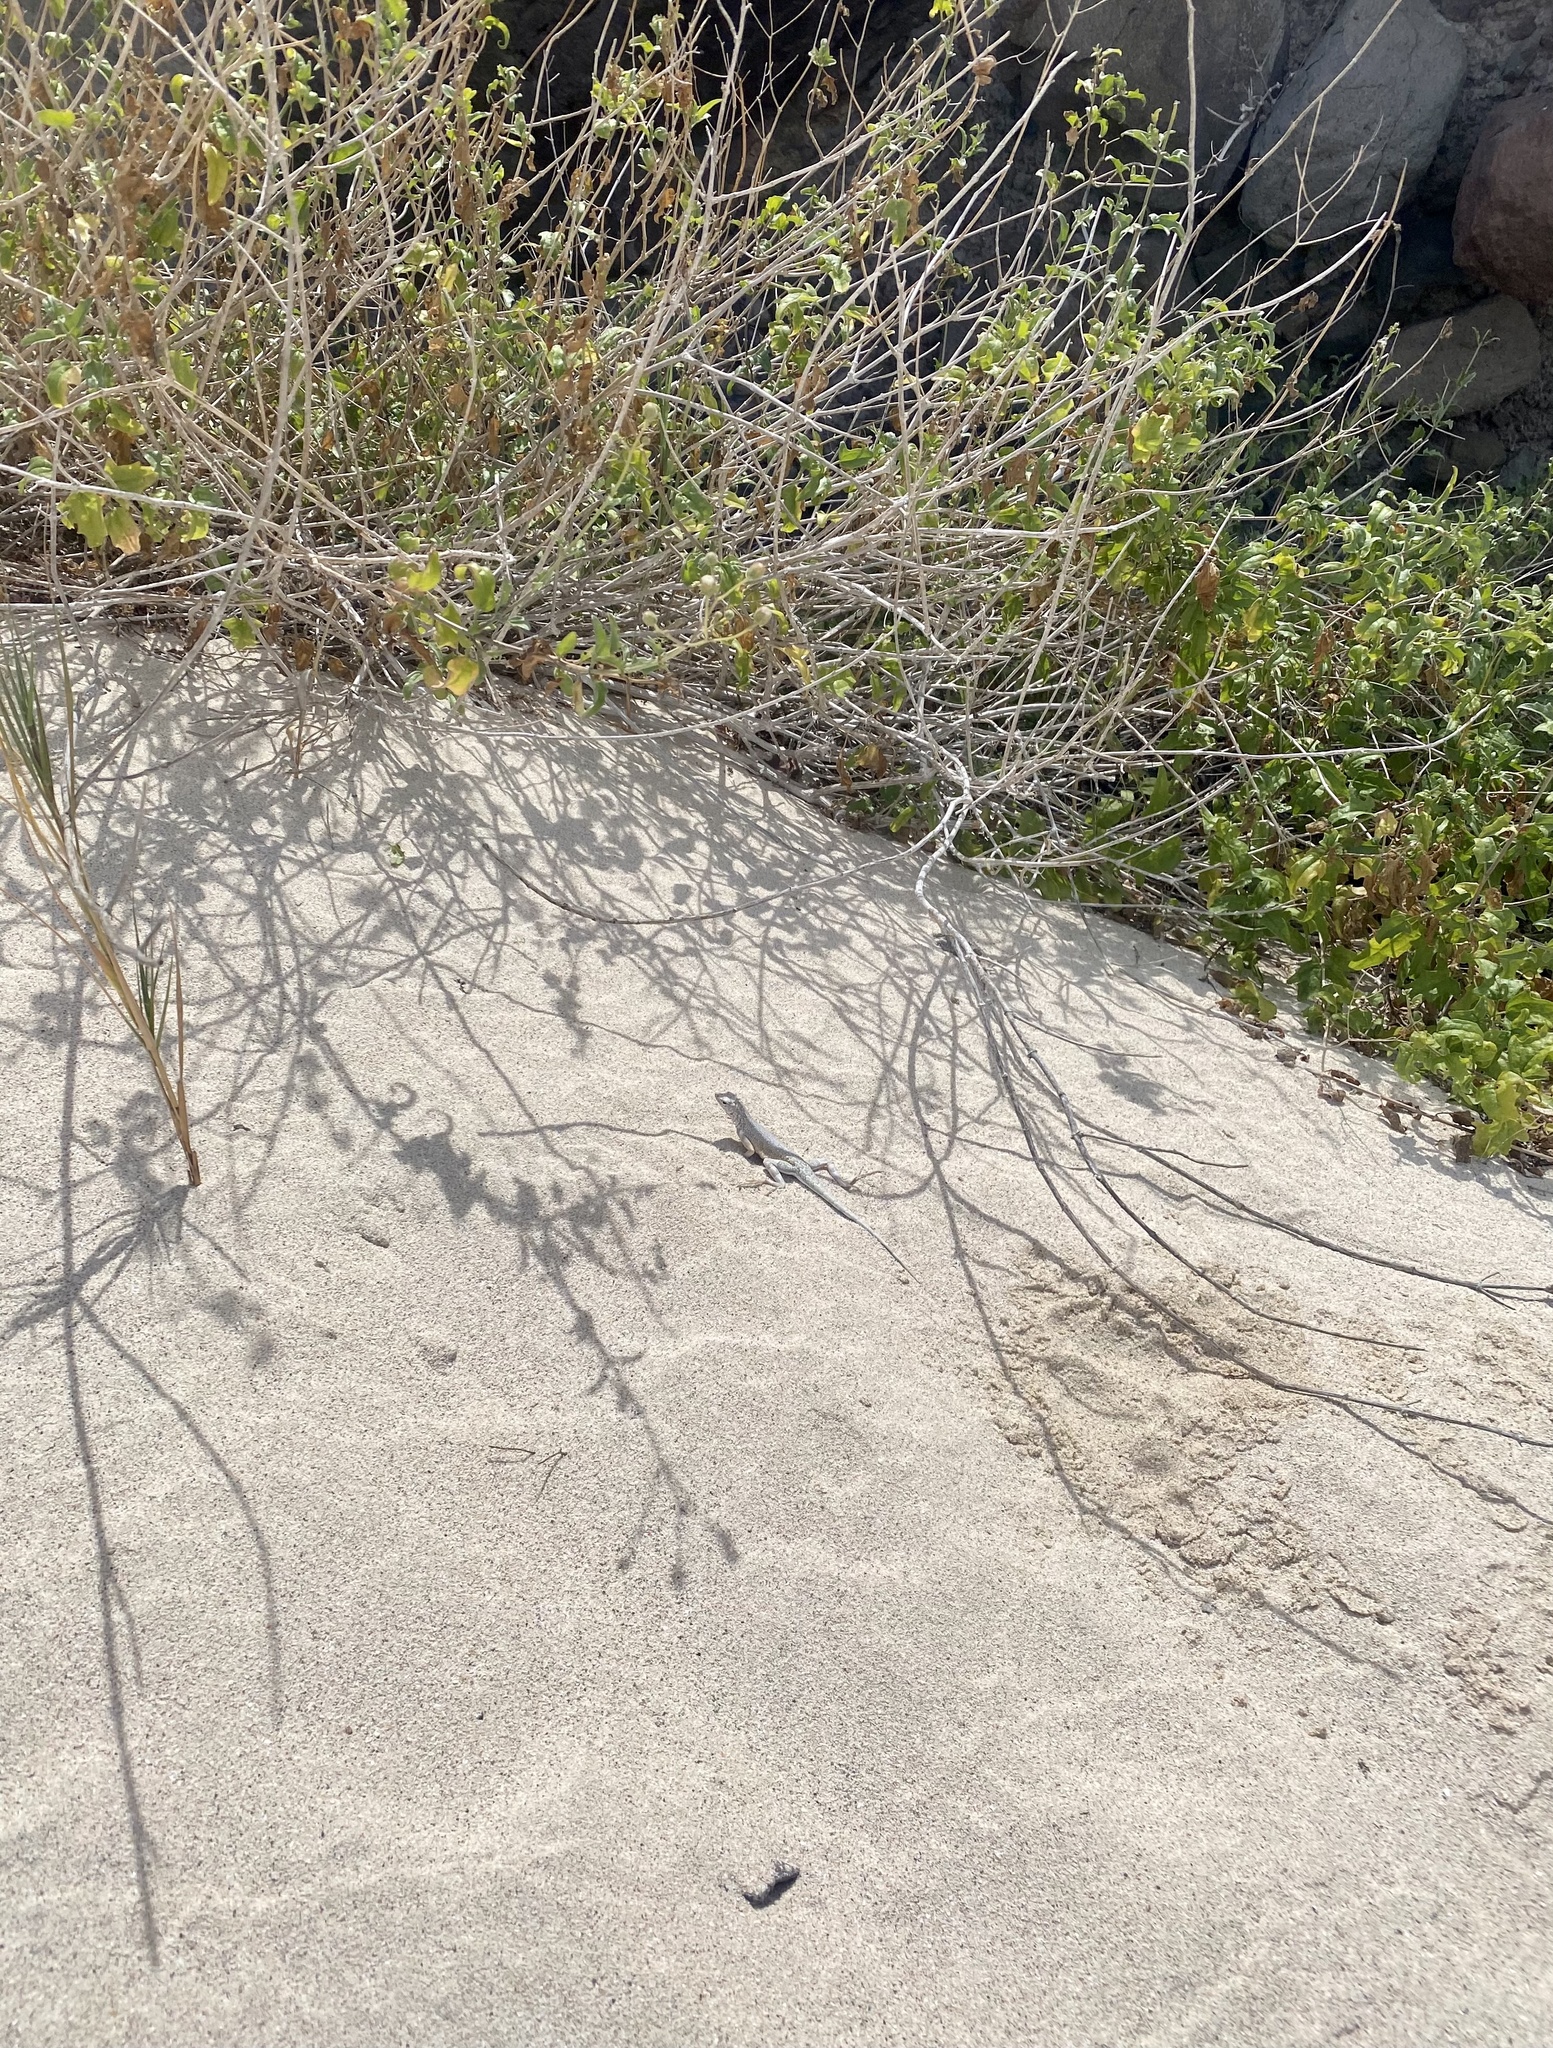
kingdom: Animalia
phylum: Chordata
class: Squamata
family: Phrynosomatidae
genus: Callisaurus
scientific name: Callisaurus draconoides
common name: Zebra-tailed lizard
